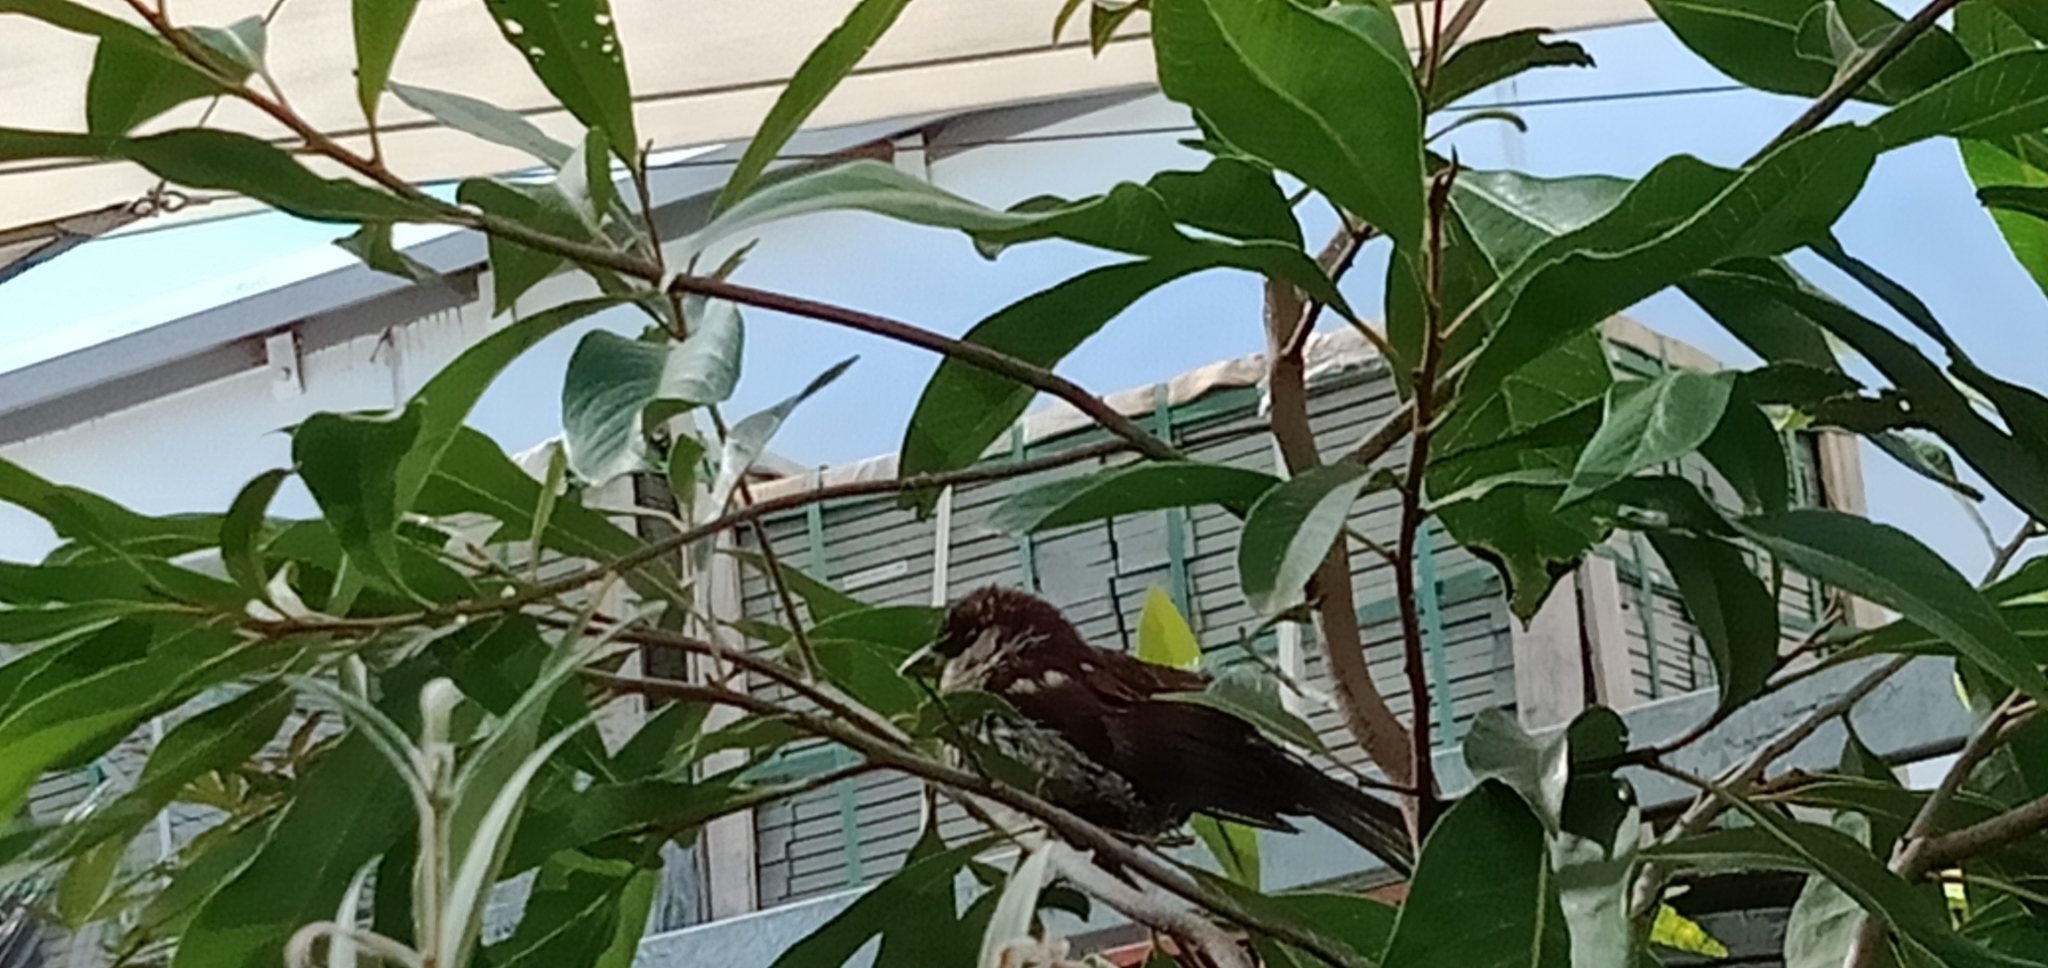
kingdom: Animalia
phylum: Chordata
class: Aves
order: Passeriformes
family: Passeridae
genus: Passer
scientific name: Passer domesticus
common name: House sparrow
